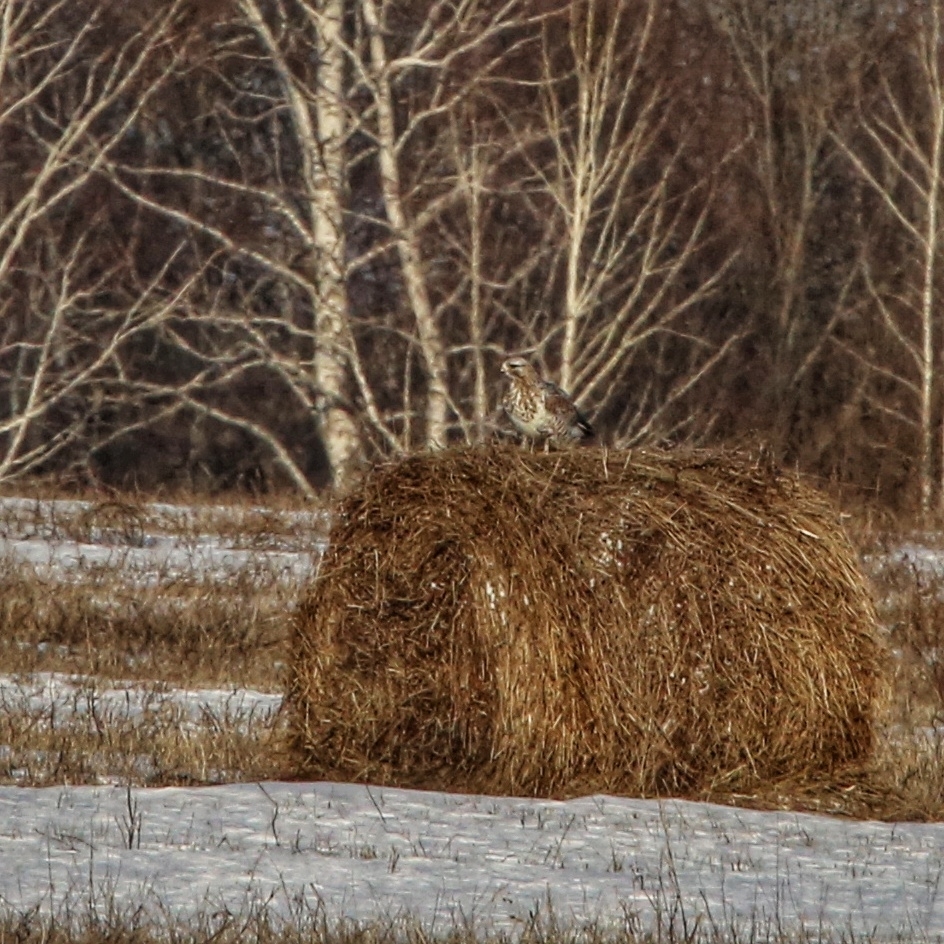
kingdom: Animalia
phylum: Chordata
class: Aves
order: Accipitriformes
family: Accipitridae
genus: Buteo
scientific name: Buteo lagopus
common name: Rough-legged buzzard
